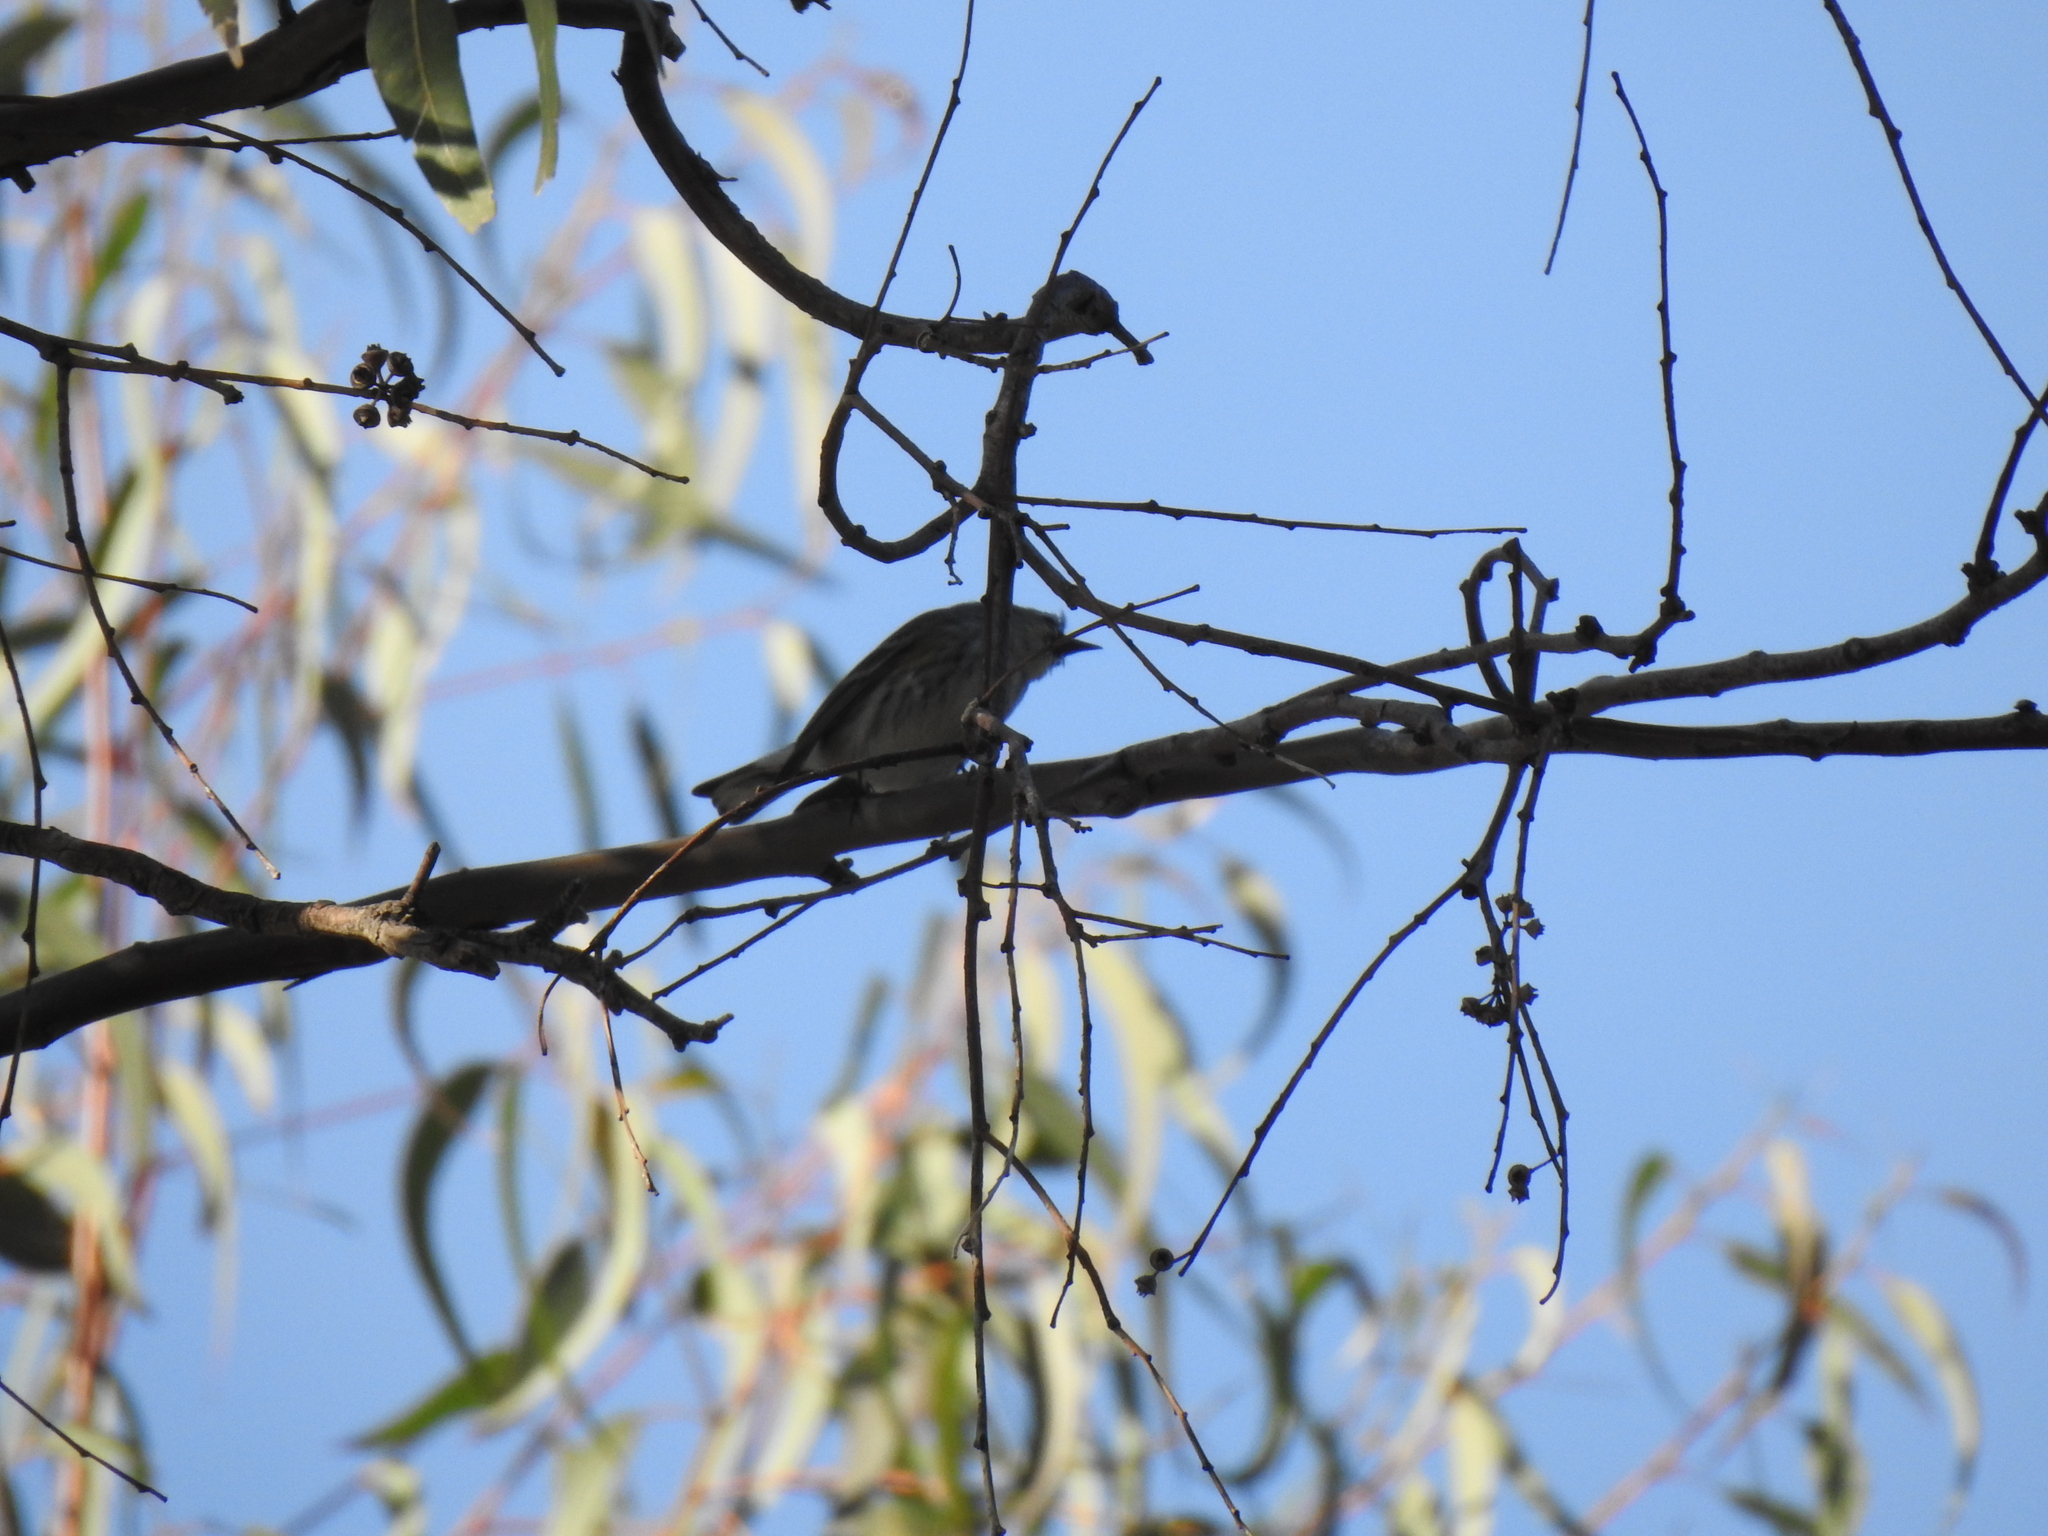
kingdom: Animalia
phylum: Chordata
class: Aves
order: Passeriformes
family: Parulidae
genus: Setophaga
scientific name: Setophaga coronata
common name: Myrtle warbler
